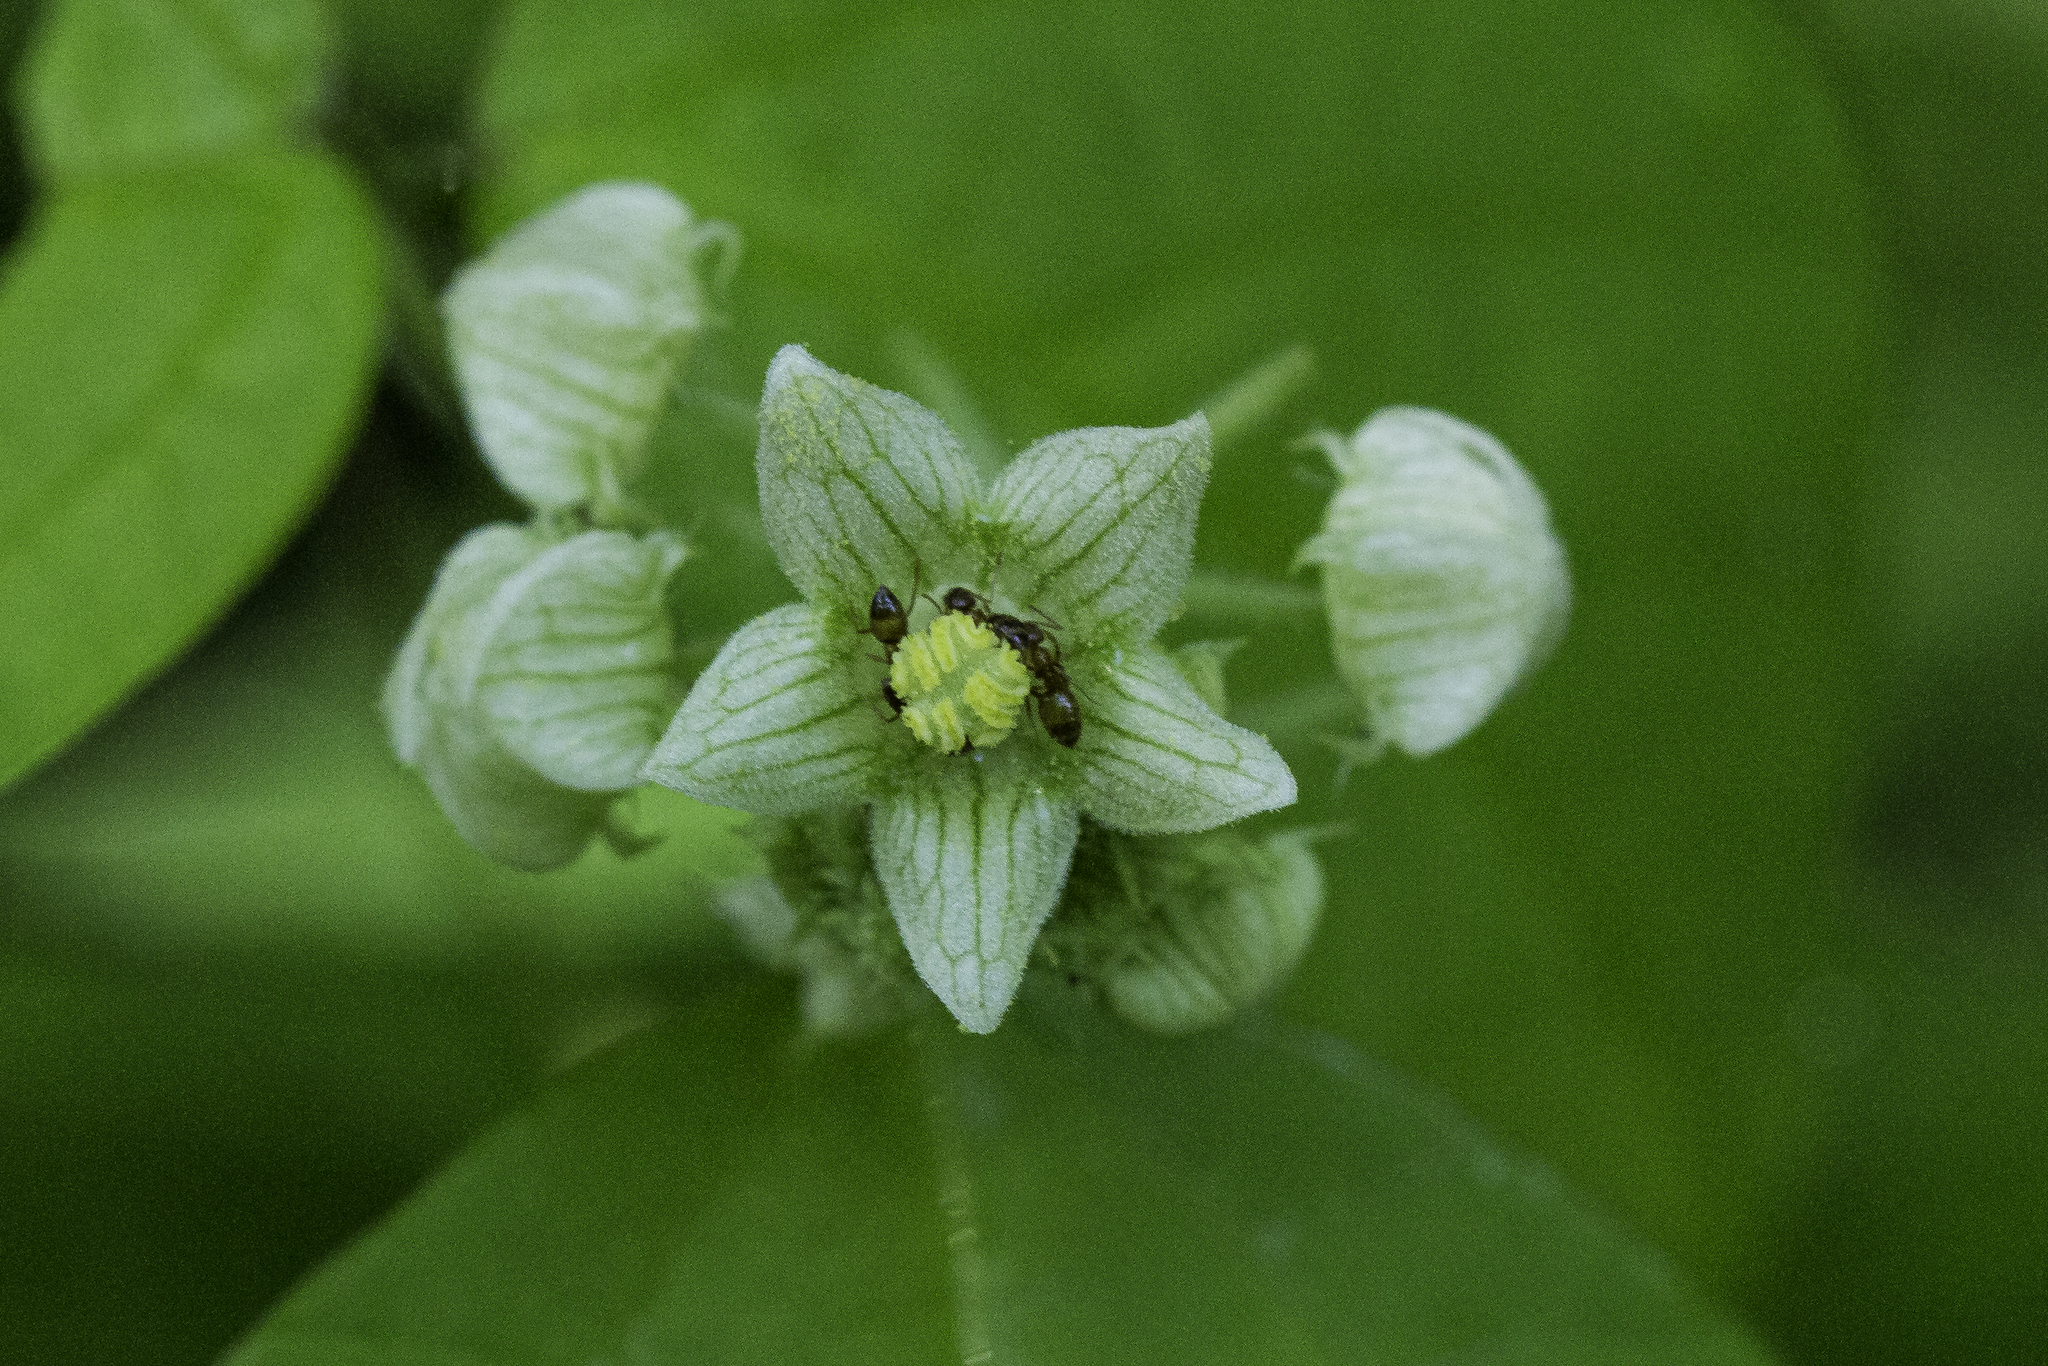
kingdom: Plantae
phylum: Tracheophyta
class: Magnoliopsida
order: Cucurbitales
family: Cucurbitaceae
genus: Sicyos
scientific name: Sicyos angulatus
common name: Angled burr cucumber
